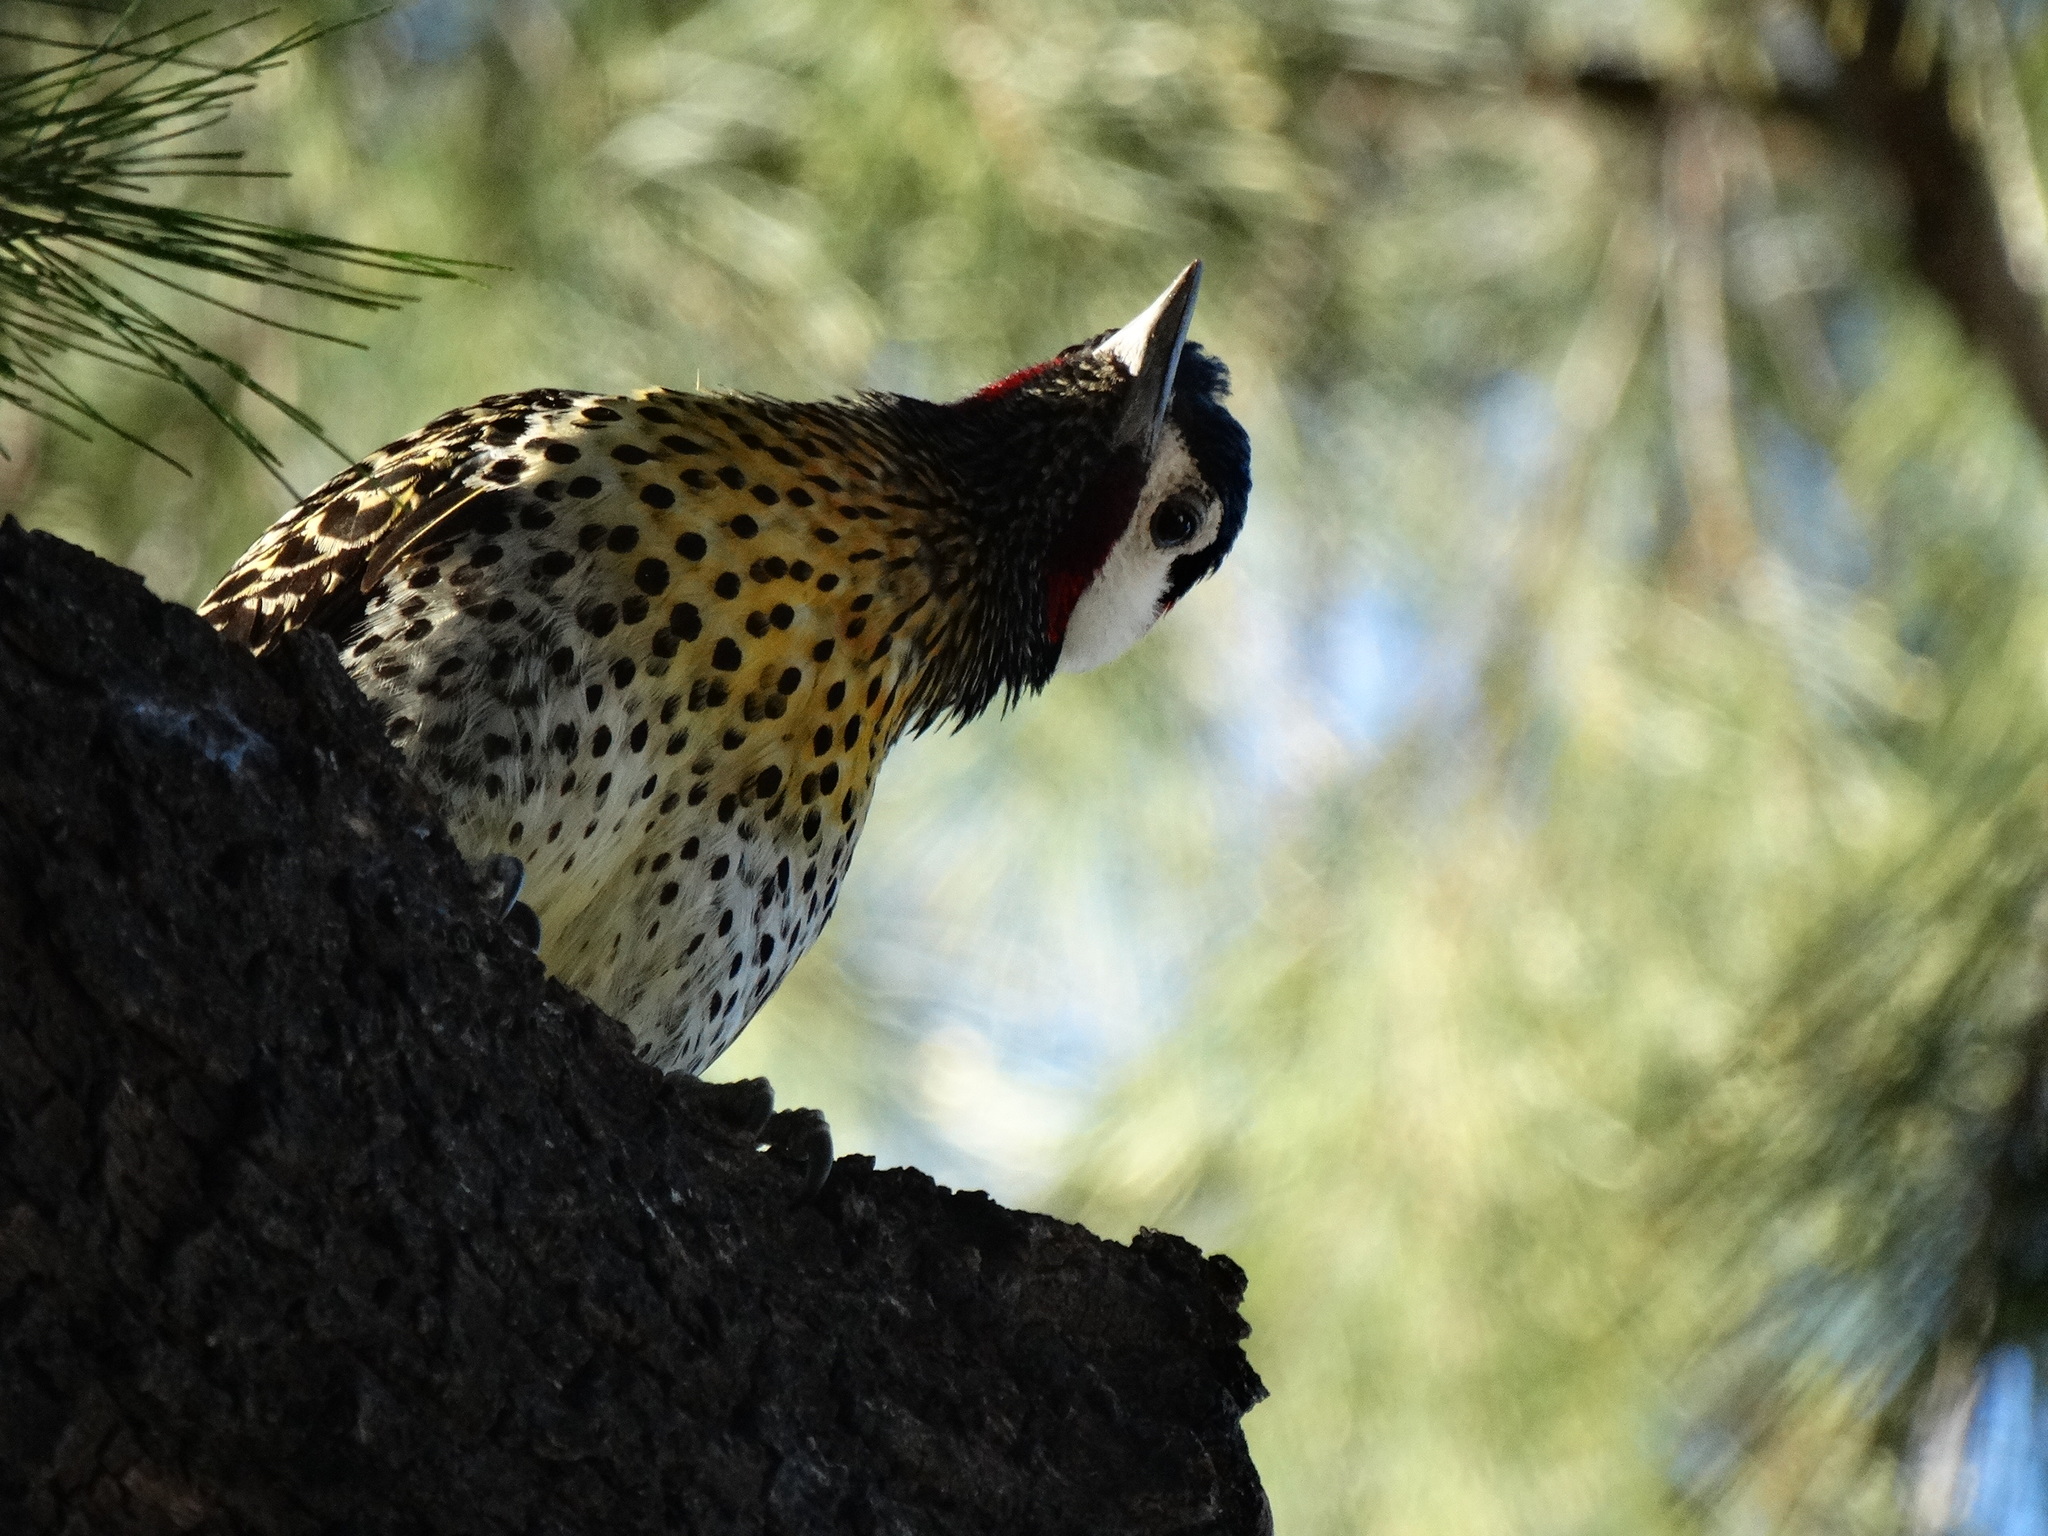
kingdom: Animalia
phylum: Chordata
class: Aves
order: Piciformes
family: Picidae
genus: Colaptes
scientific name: Colaptes melanochloros
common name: Green-barred woodpecker
